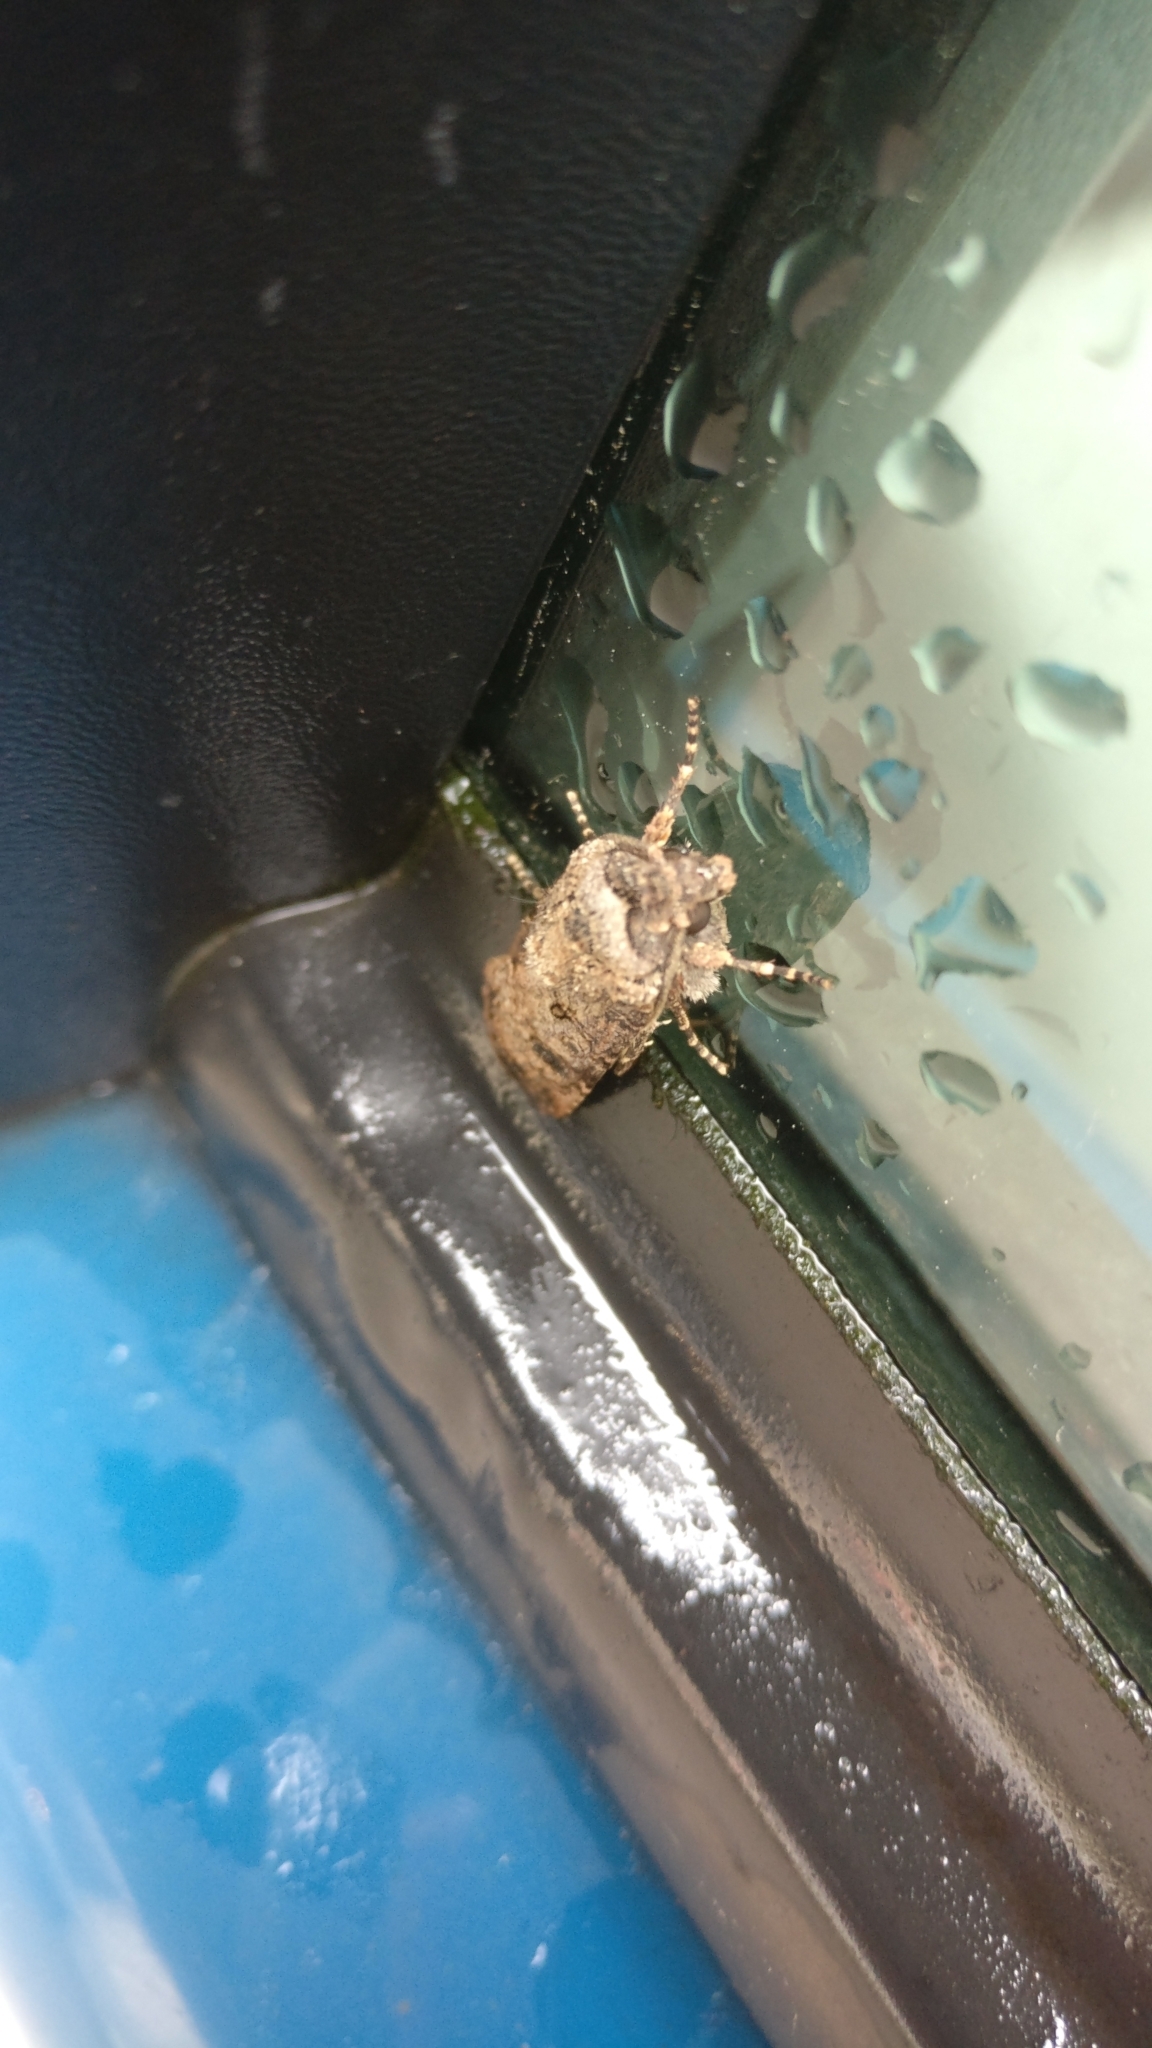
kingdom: Animalia
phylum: Arthropoda
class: Insecta
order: Lepidoptera
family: Noctuidae
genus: Agrotis
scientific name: Agrotis segetum
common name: Turnip moth
